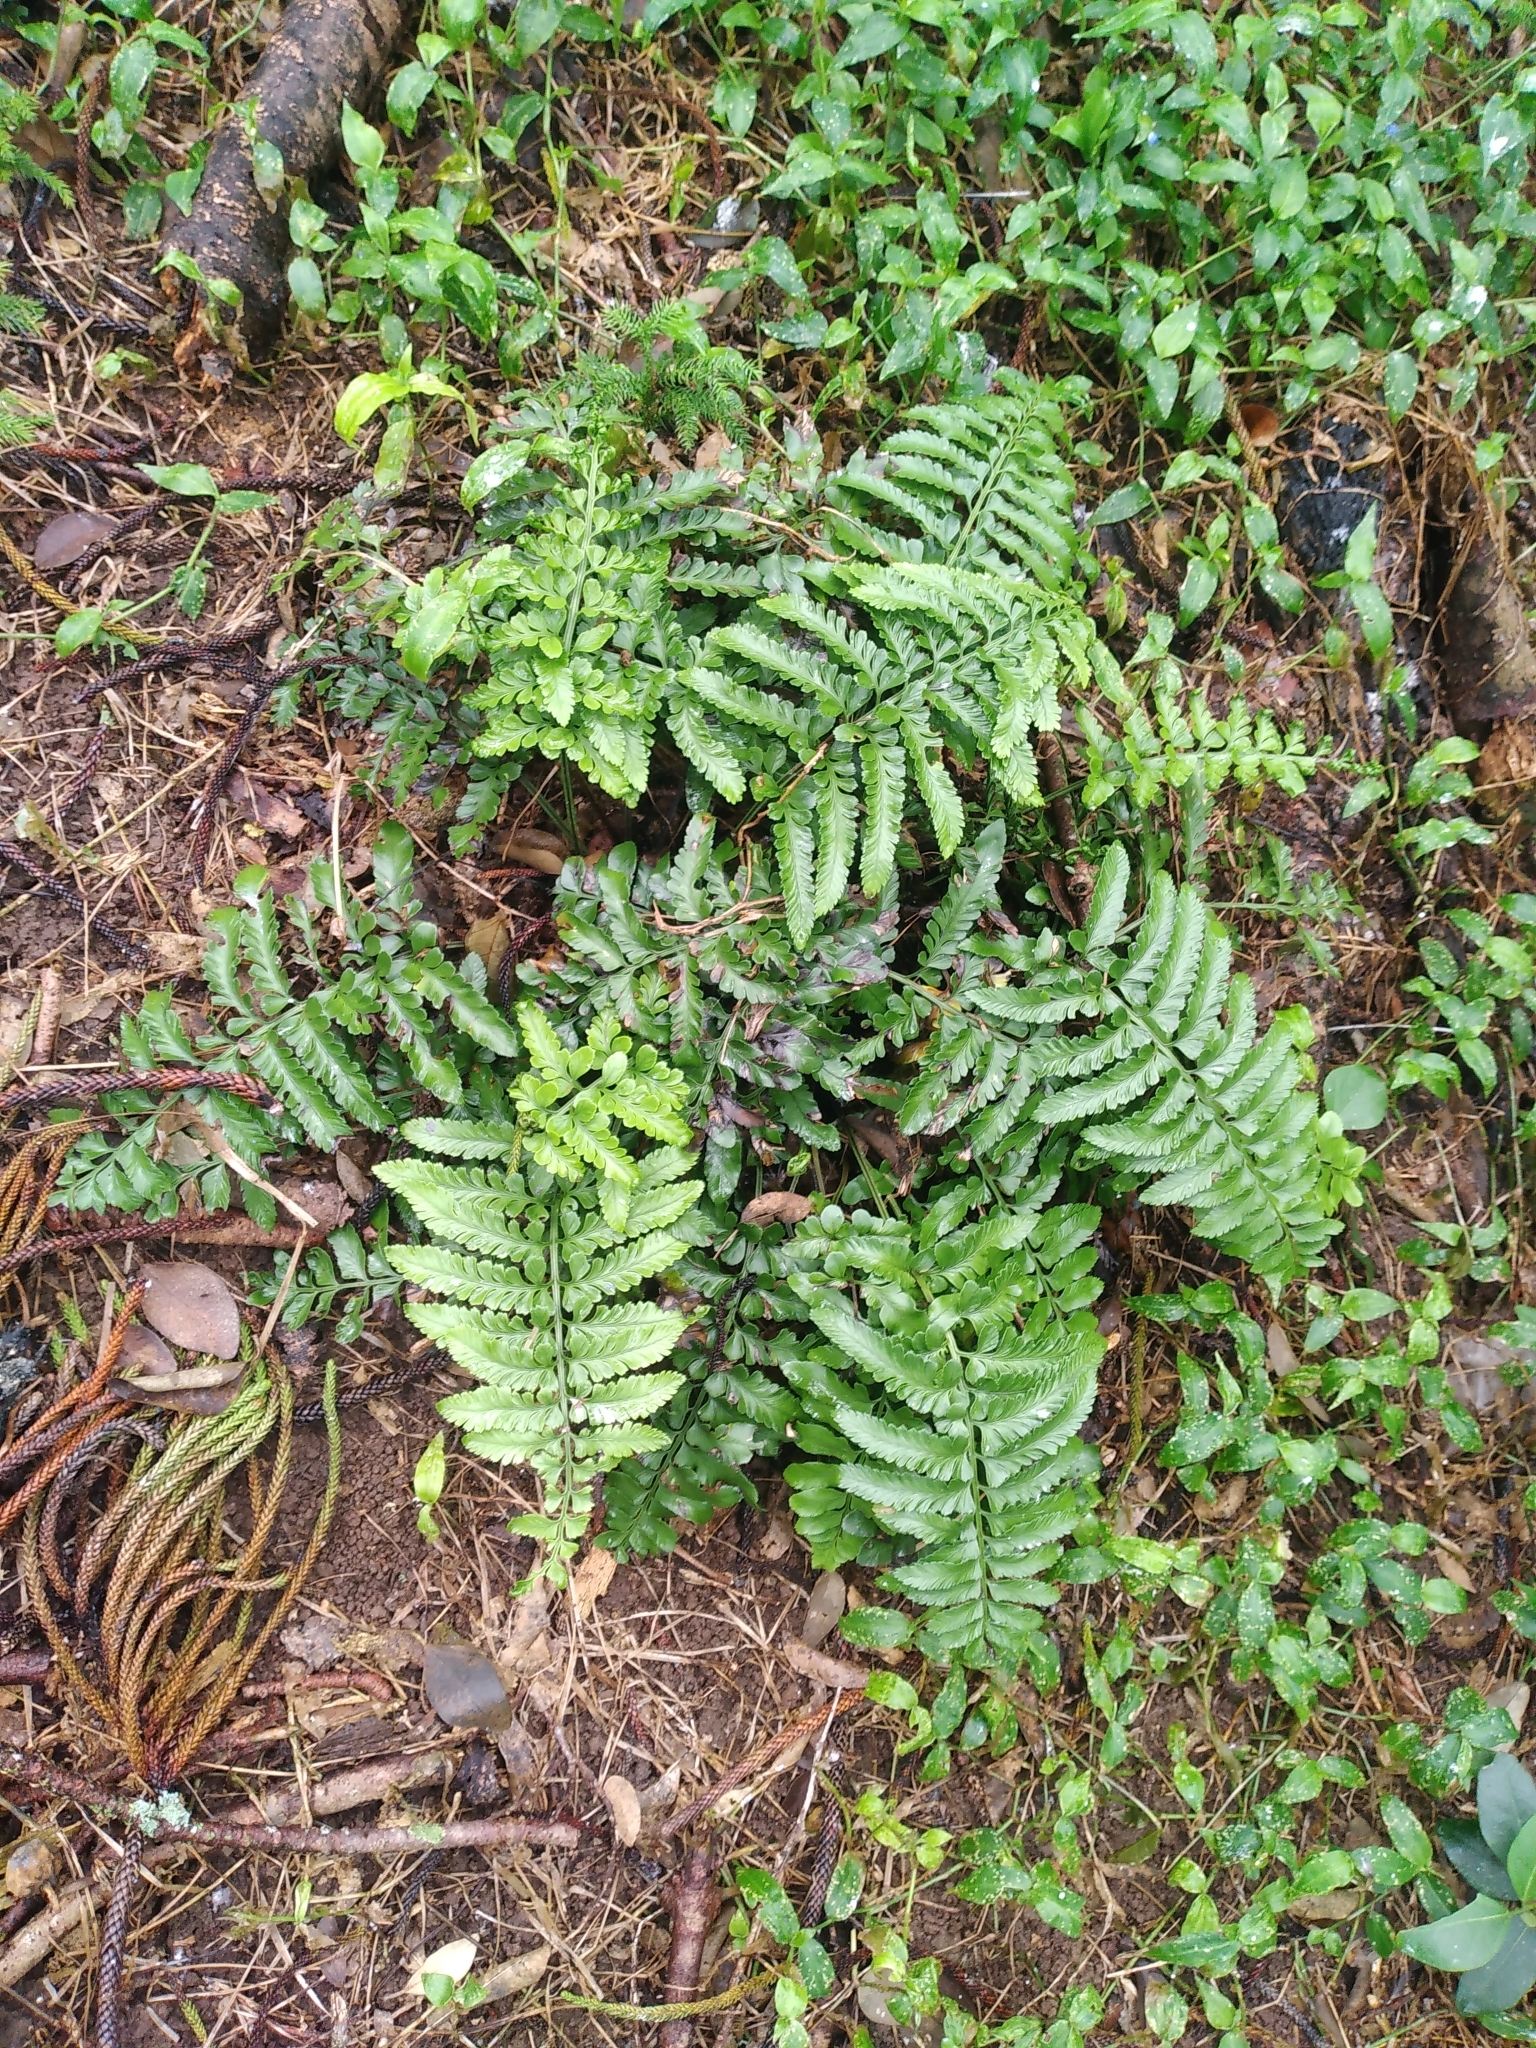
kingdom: Plantae
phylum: Tracheophyta
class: Polypodiopsida
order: Polypodiales
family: Aspleniaceae
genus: Asplenium
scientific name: Asplenium difforme
